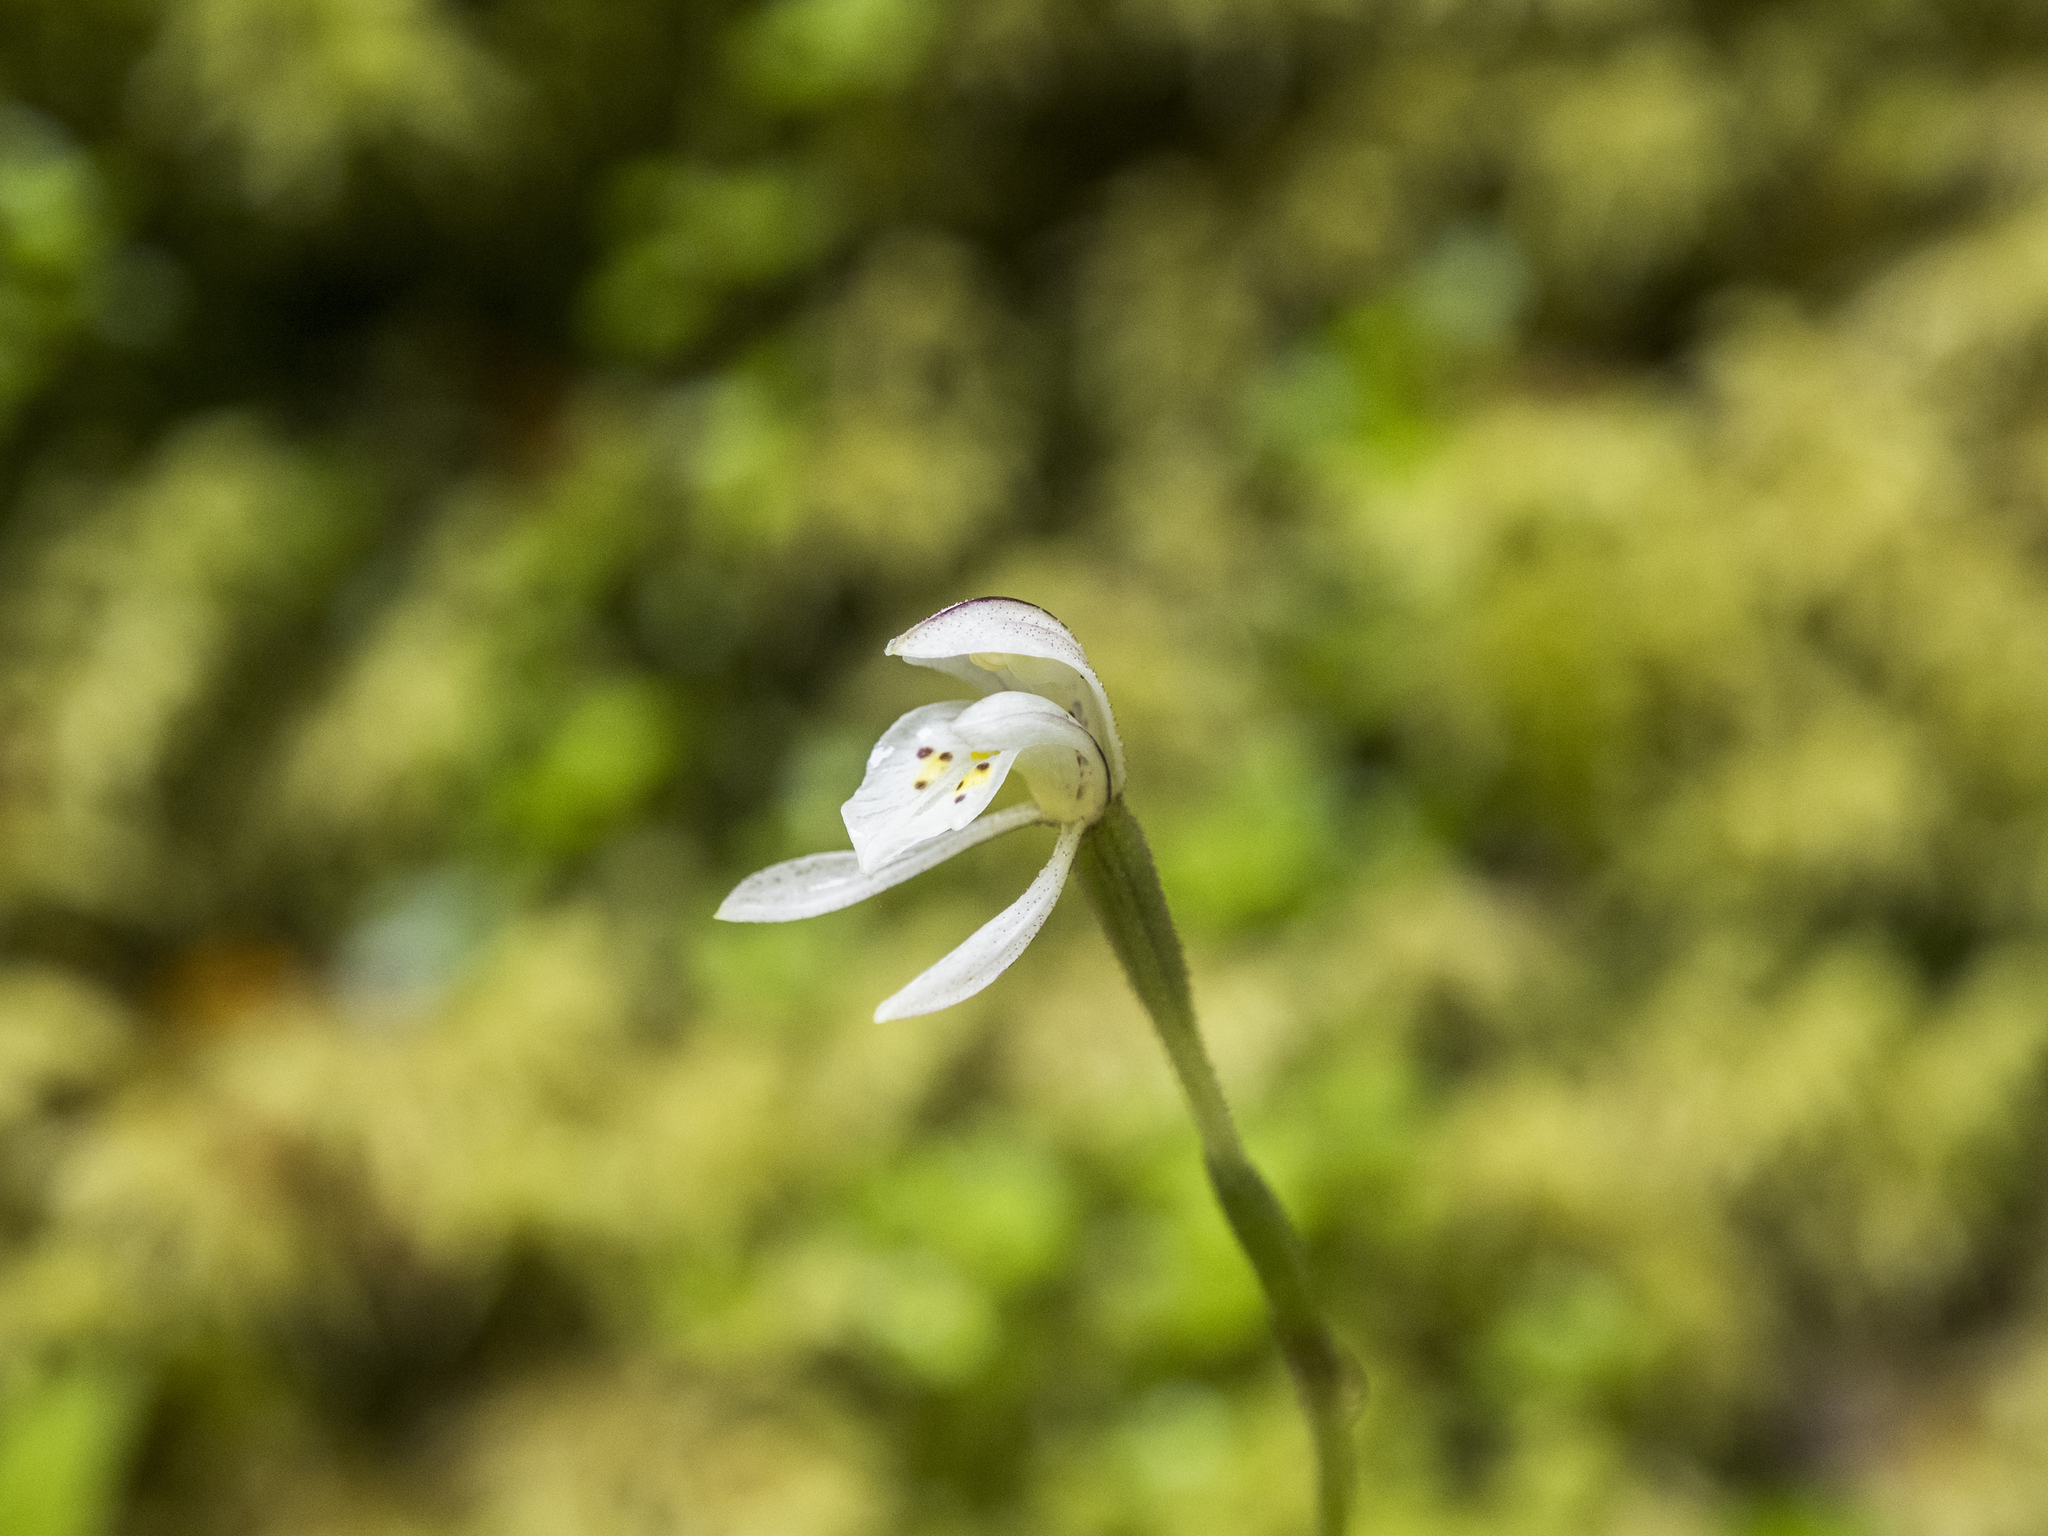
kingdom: Plantae
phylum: Tracheophyta
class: Liliopsida
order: Asparagales
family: Orchidaceae
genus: Aporostylis
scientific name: Aporostylis bifolia
